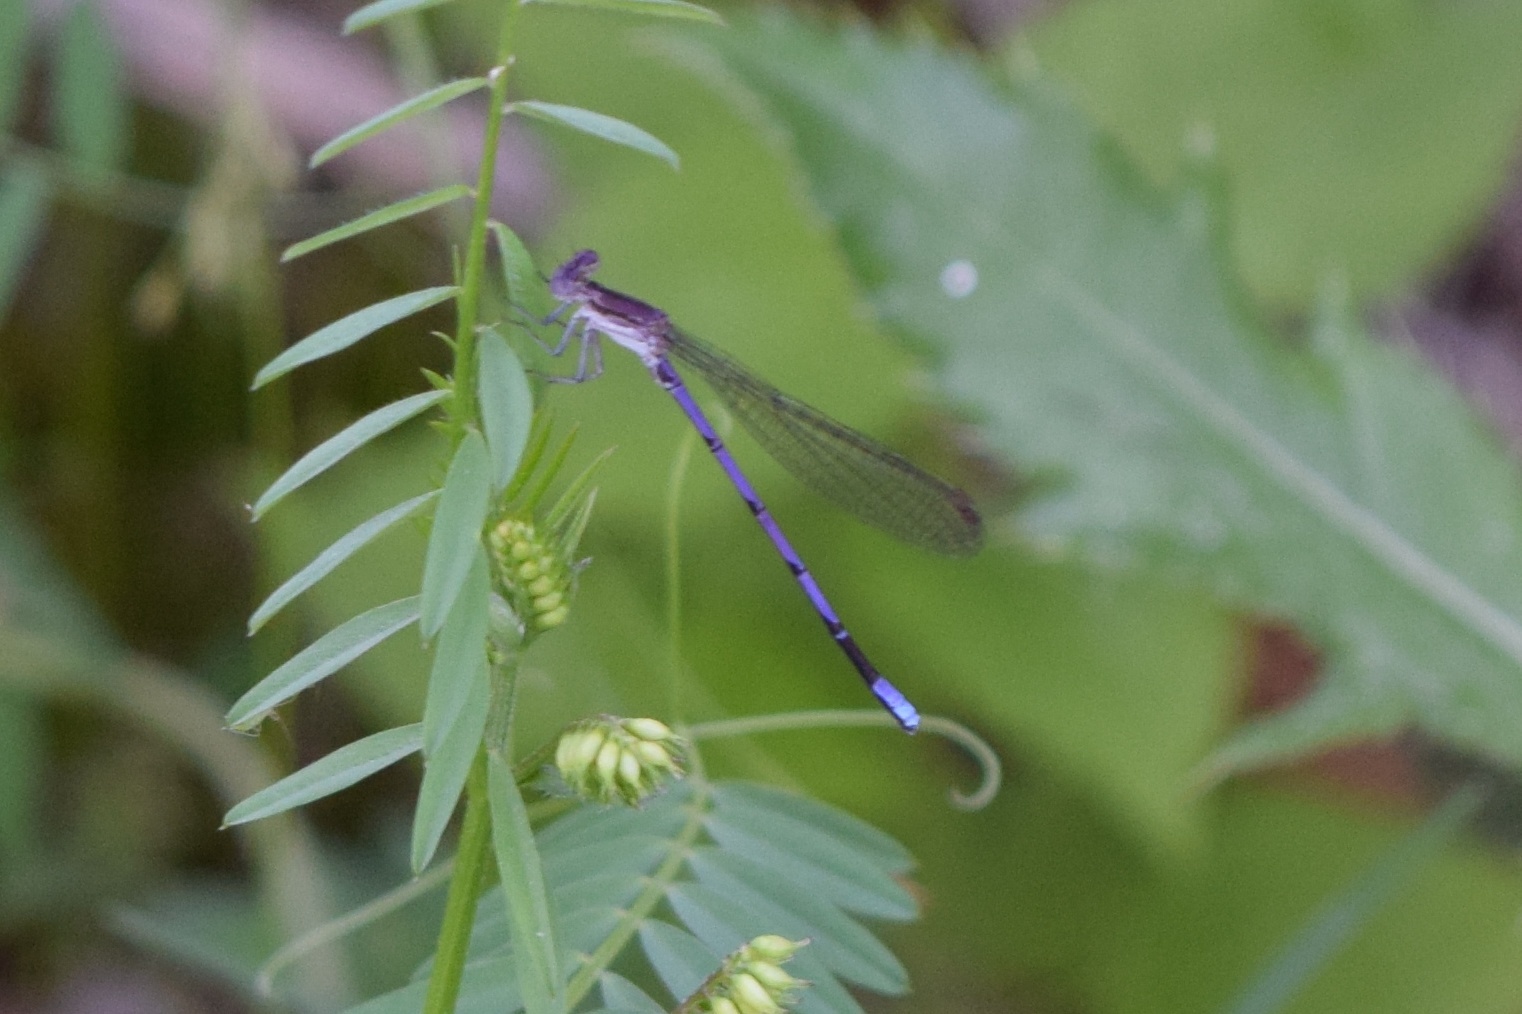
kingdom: Animalia
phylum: Arthropoda
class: Insecta
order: Odonata
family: Coenagrionidae
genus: Argia
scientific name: Argia fumipennis
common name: Variable dancer
